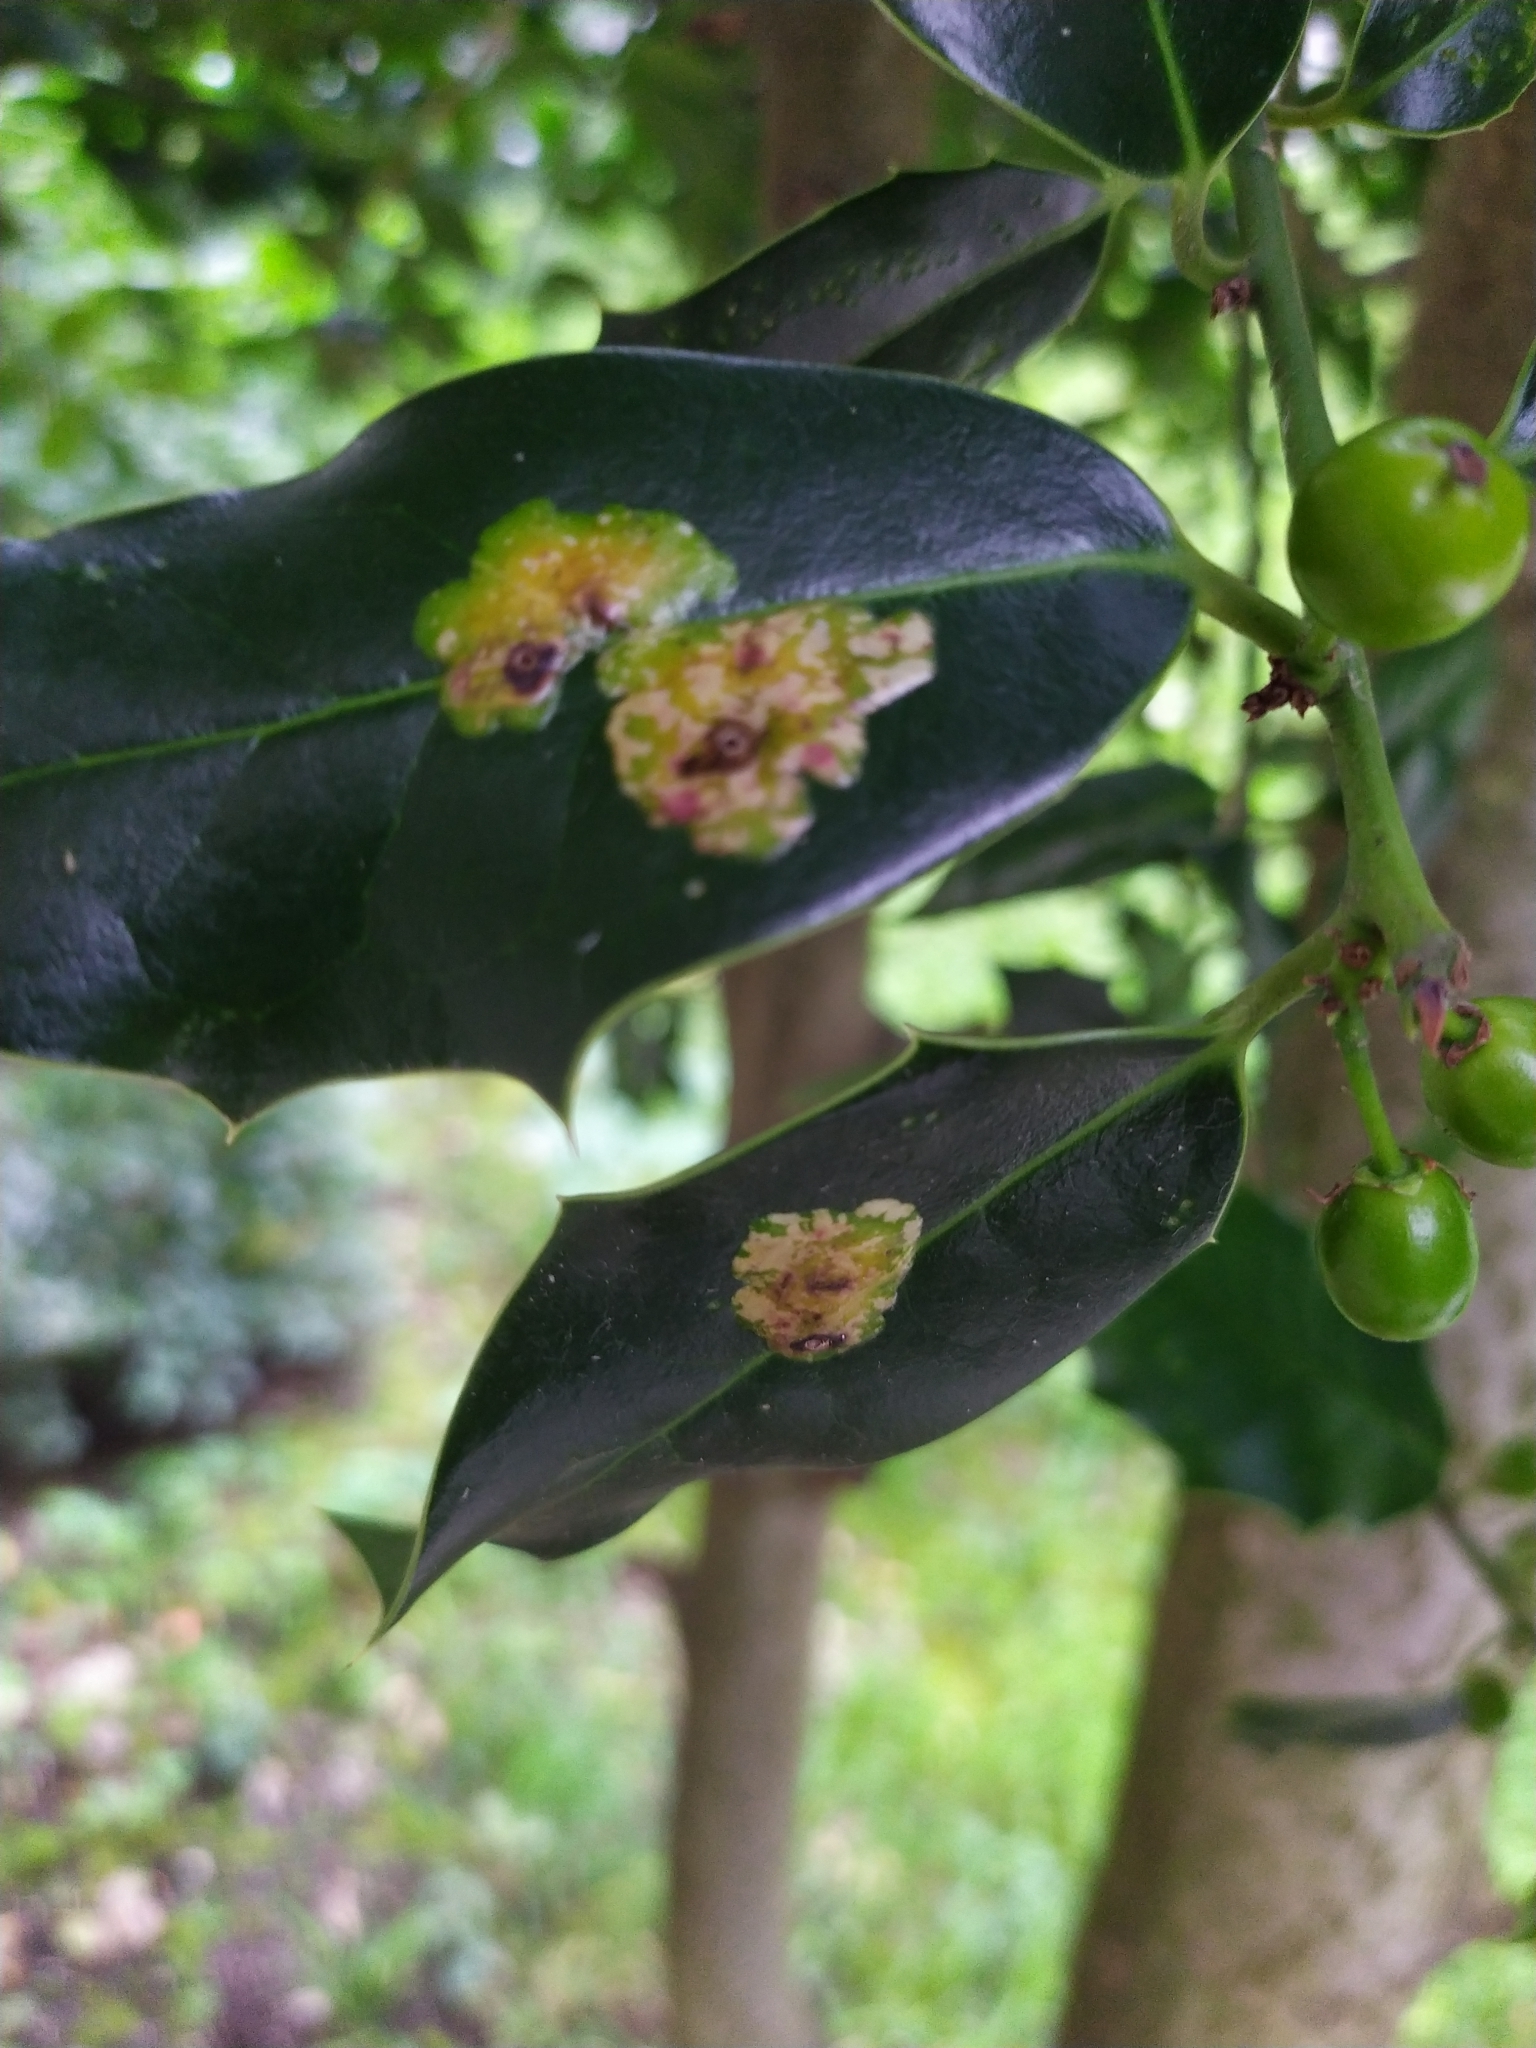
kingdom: Animalia
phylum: Arthropoda
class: Insecta
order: Diptera
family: Agromyzidae
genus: Phytomyza
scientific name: Phytomyza ilicis
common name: Holly leafminer
